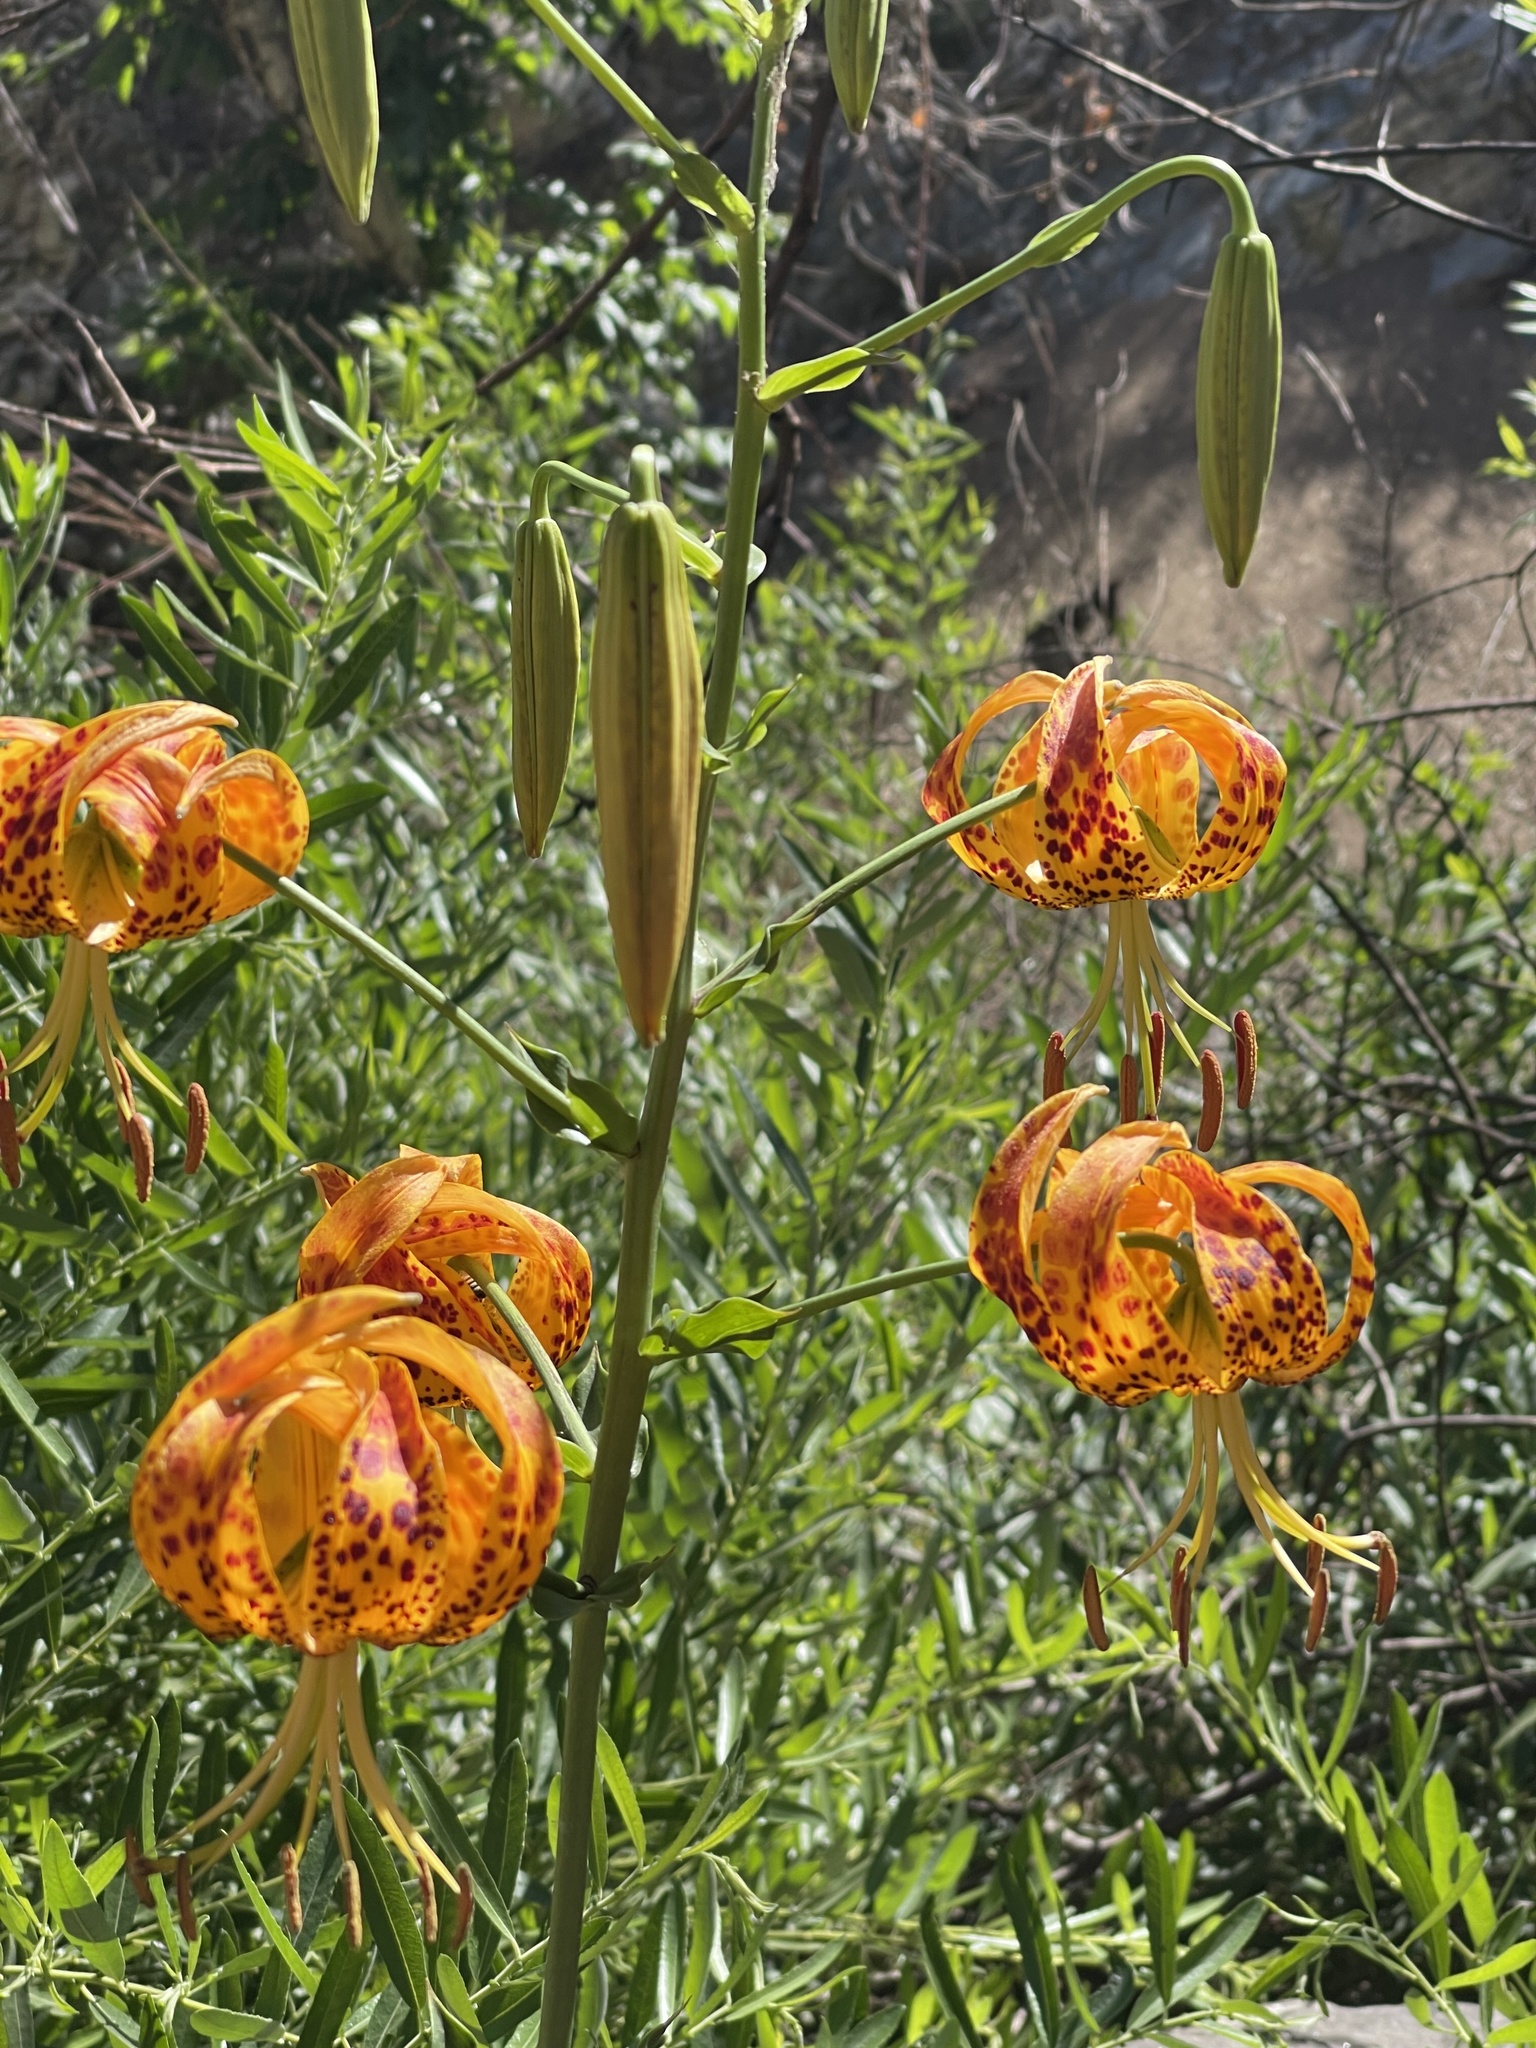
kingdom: Plantae
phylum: Tracheophyta
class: Liliopsida
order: Liliales
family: Liliaceae
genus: Lilium
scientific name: Lilium humboldtii
